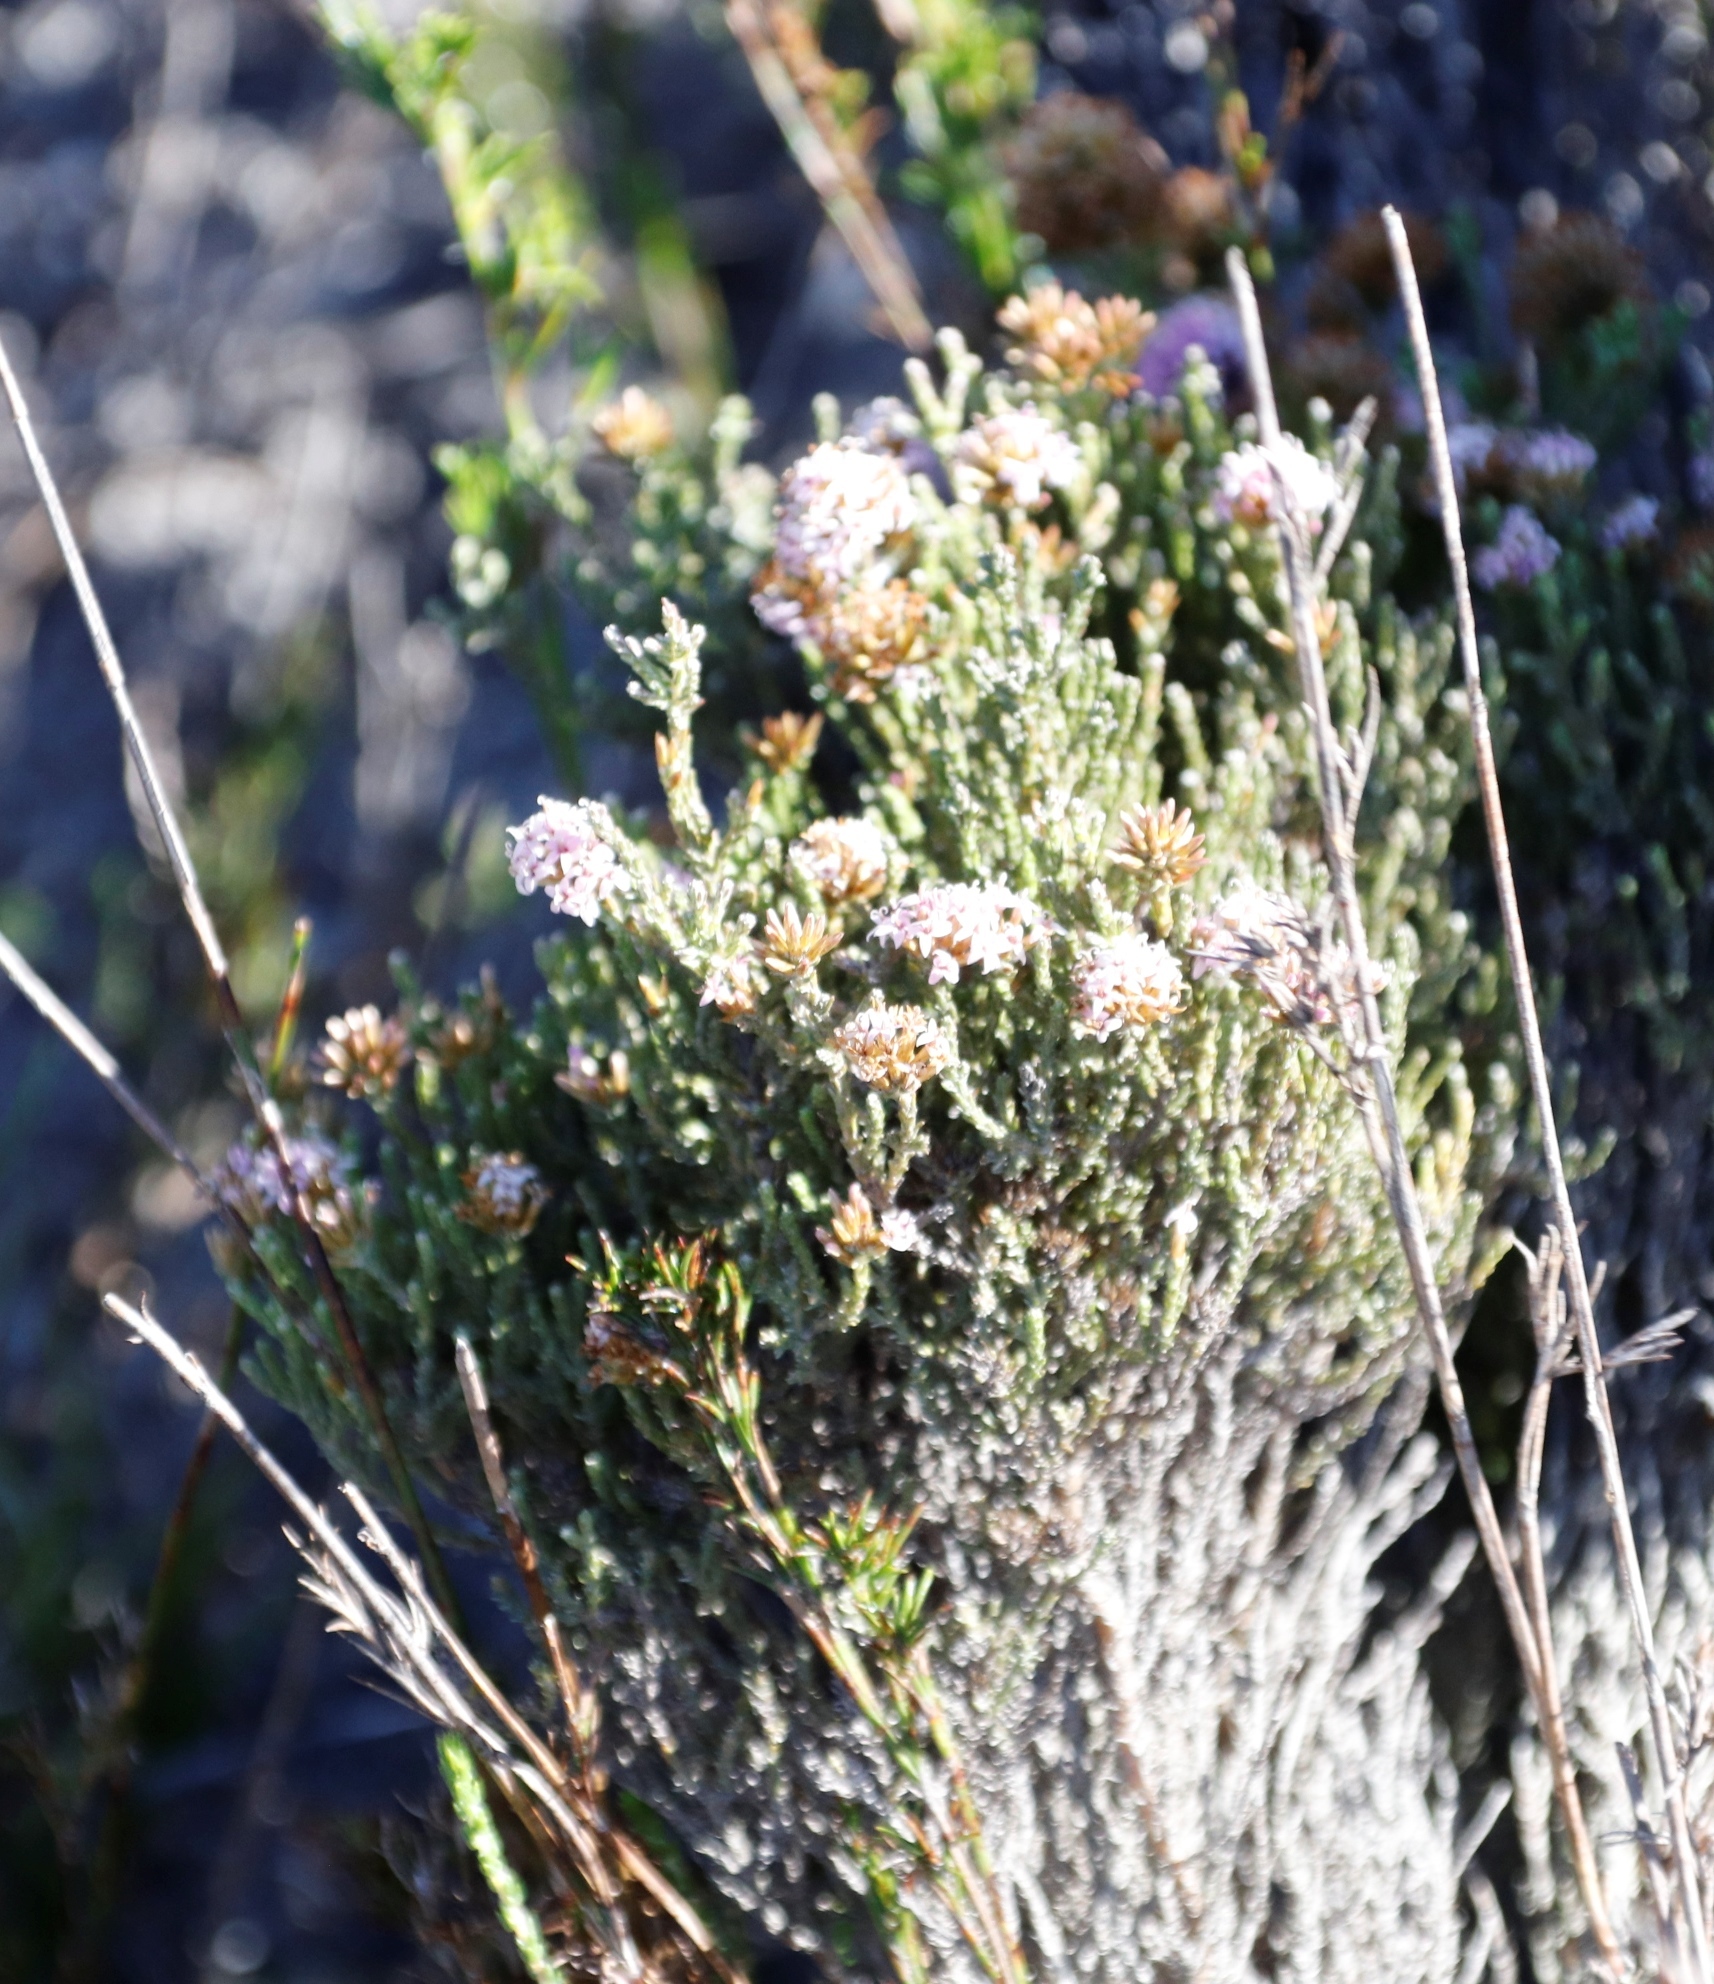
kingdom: Plantae
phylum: Tracheophyta
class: Magnoliopsida
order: Asterales
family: Asteraceae
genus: Stoebe
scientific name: Stoebe fusca
